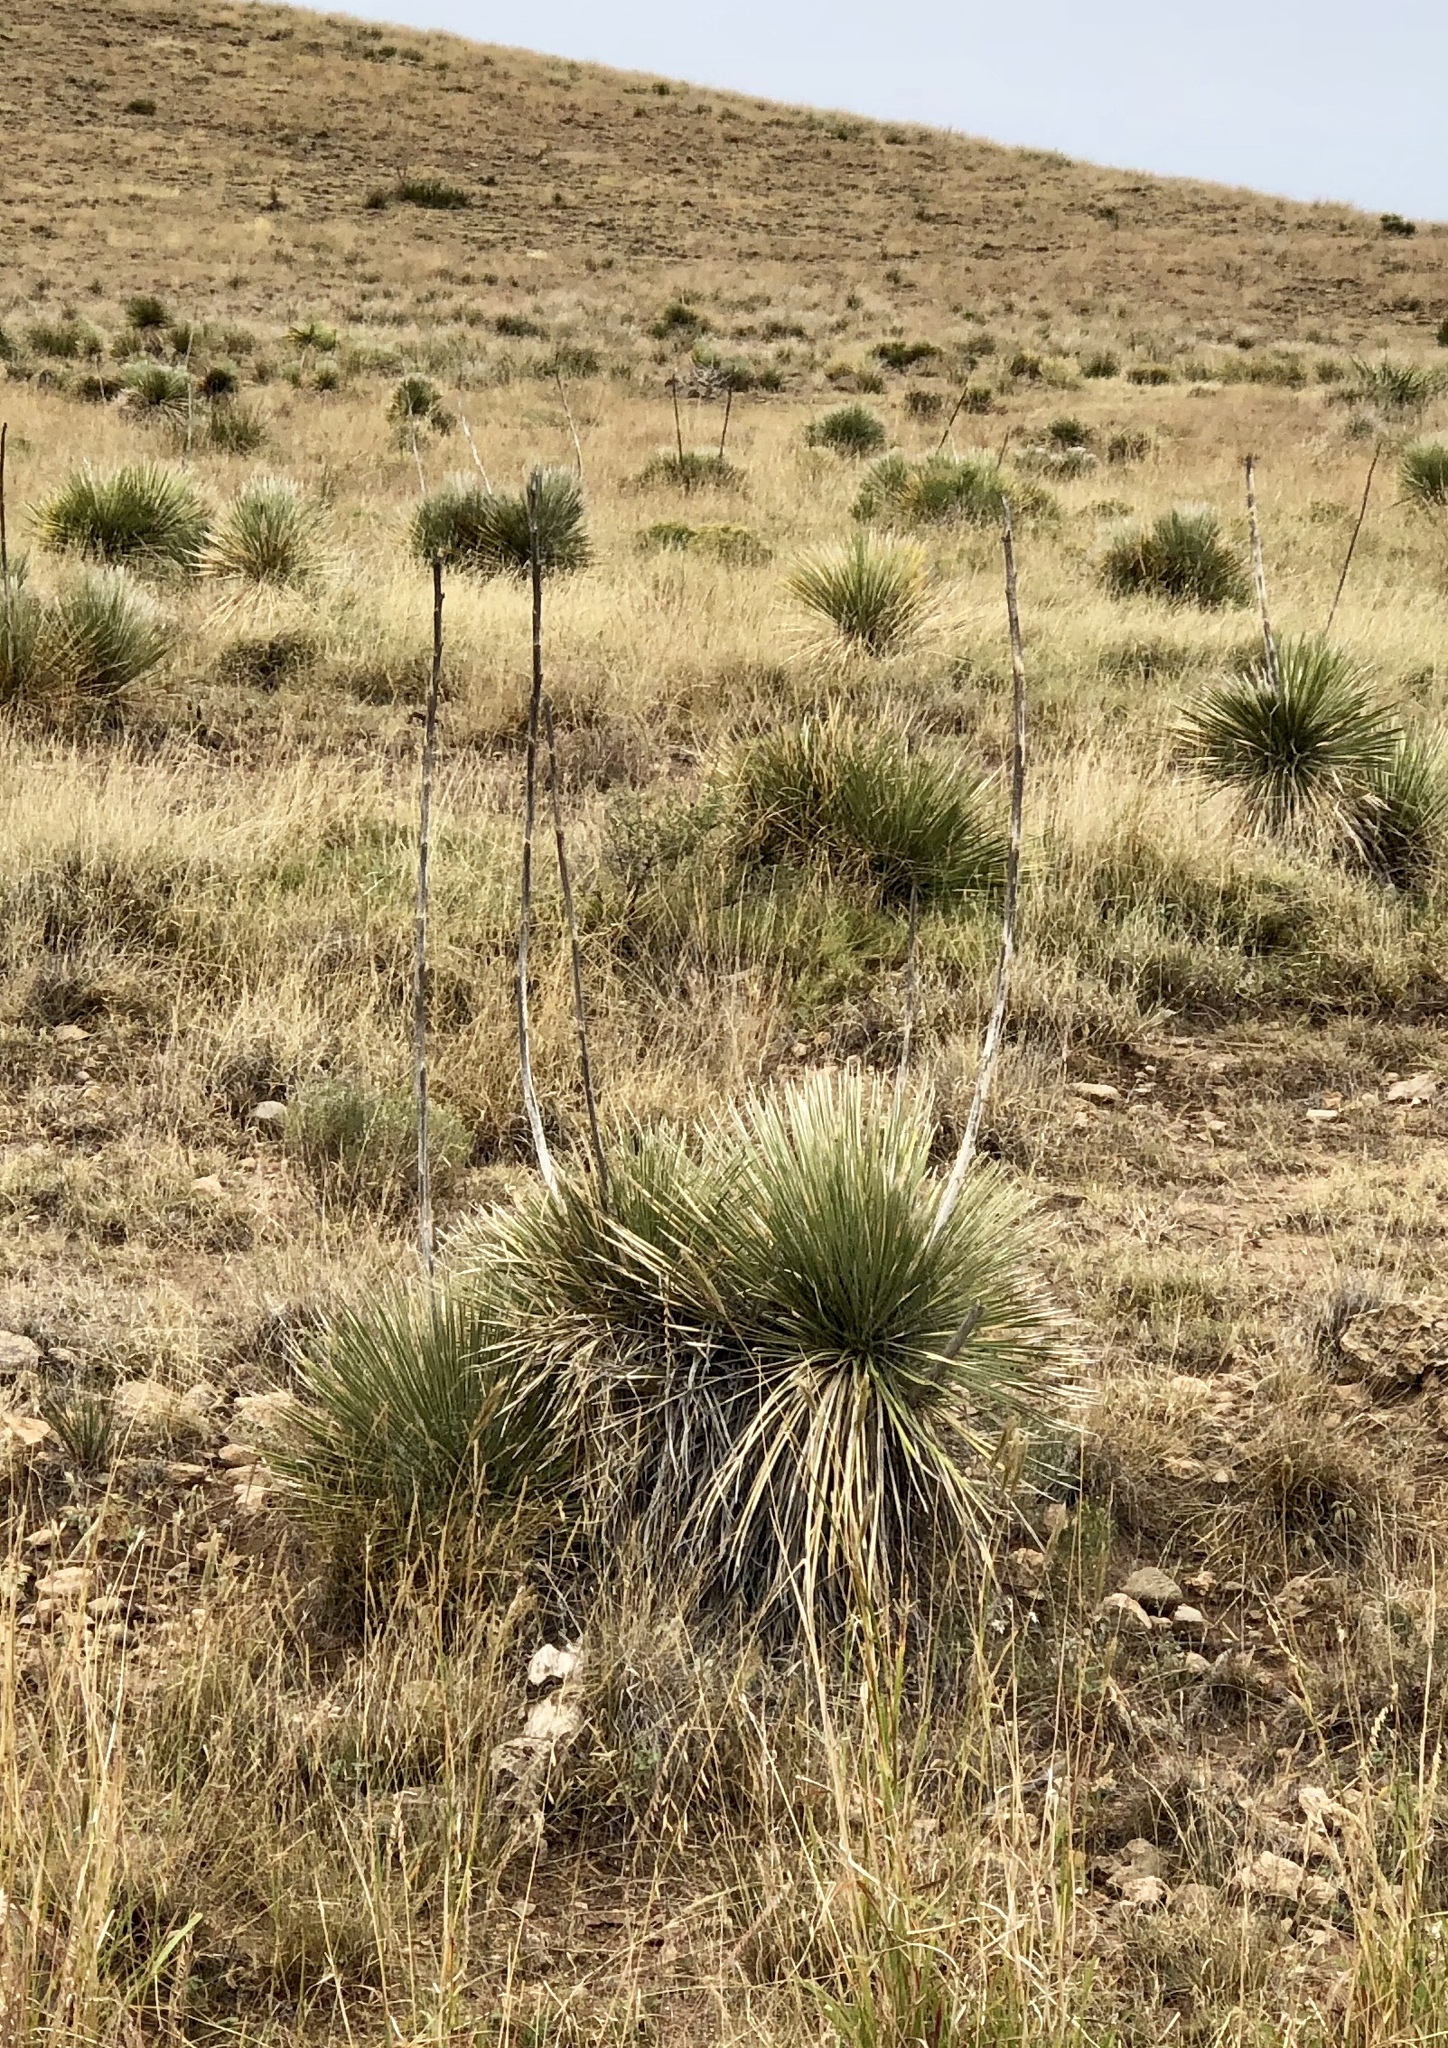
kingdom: Plantae
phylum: Tracheophyta
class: Liliopsida
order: Asparagales
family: Asparagaceae
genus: Yucca
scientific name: Yucca elata
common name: Palmella
